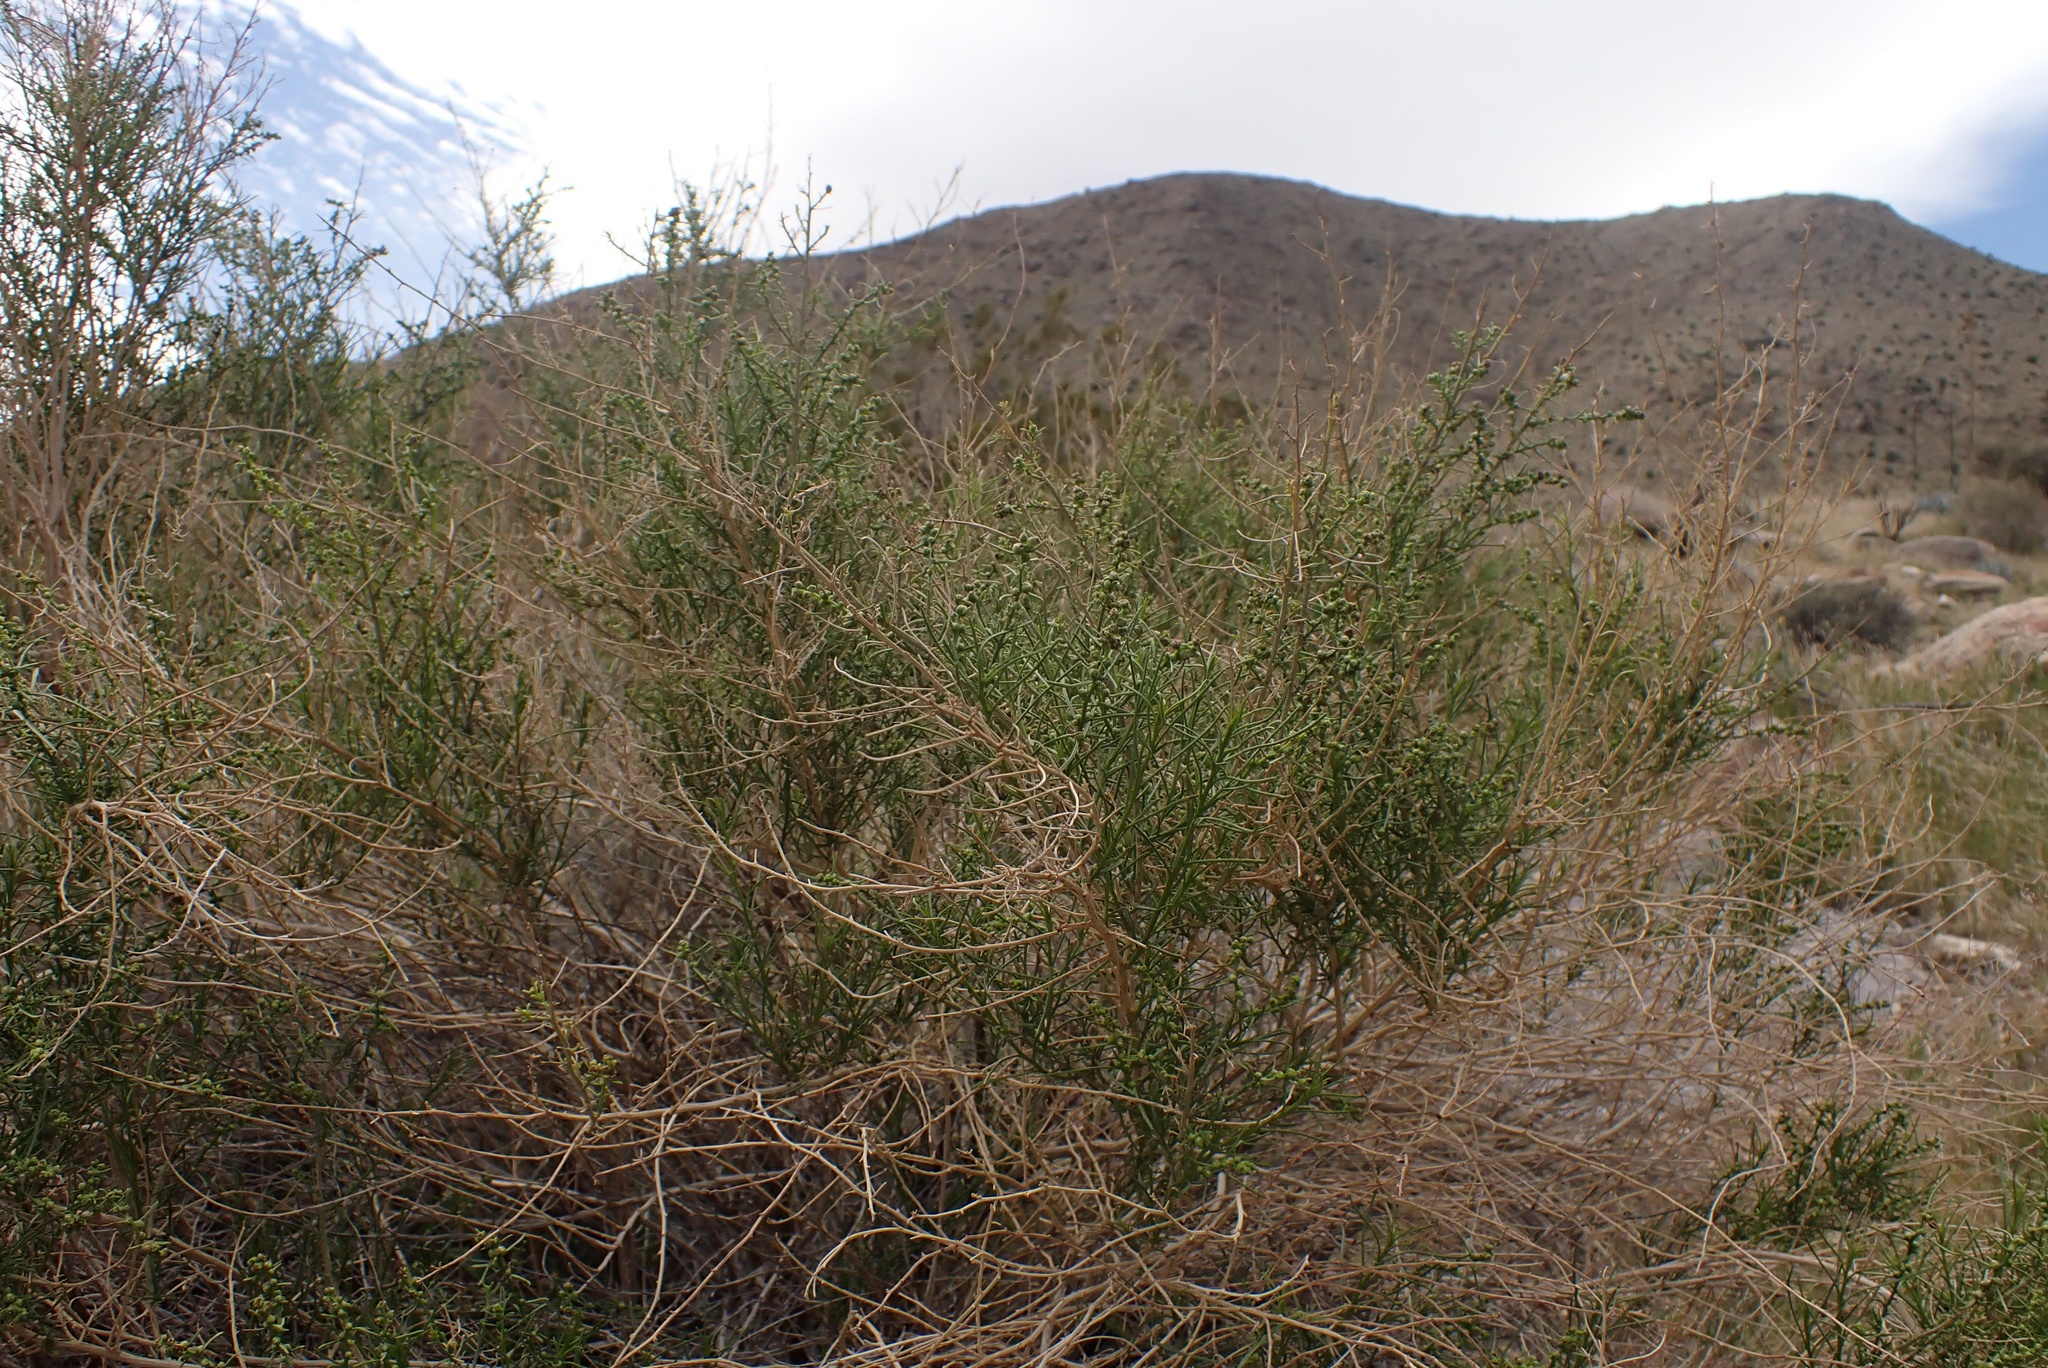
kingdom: Plantae
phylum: Tracheophyta
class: Magnoliopsida
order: Asterales
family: Asteraceae
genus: Ambrosia
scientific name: Ambrosia salsola
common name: Burrobrush
